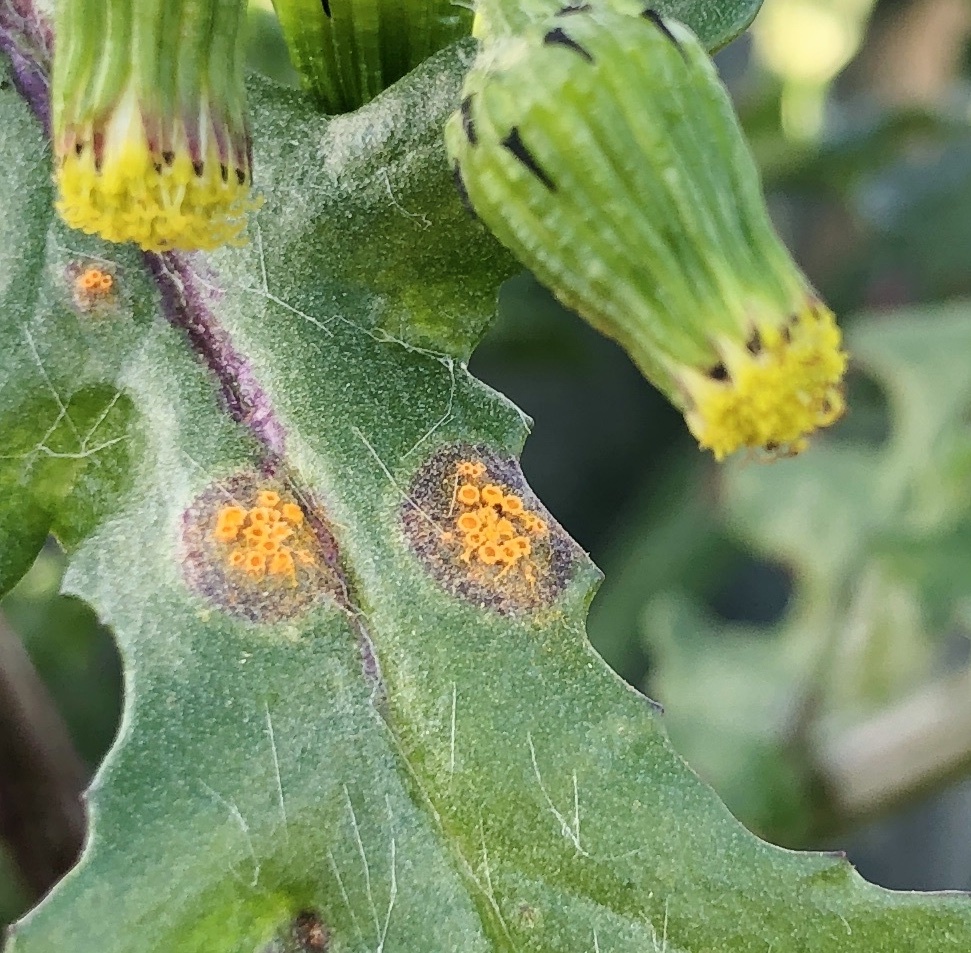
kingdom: Fungi
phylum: Basidiomycota
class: Pucciniomycetes
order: Pucciniales
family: Pucciniaceae
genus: Puccinia
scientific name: Puccinia lagenophorae
